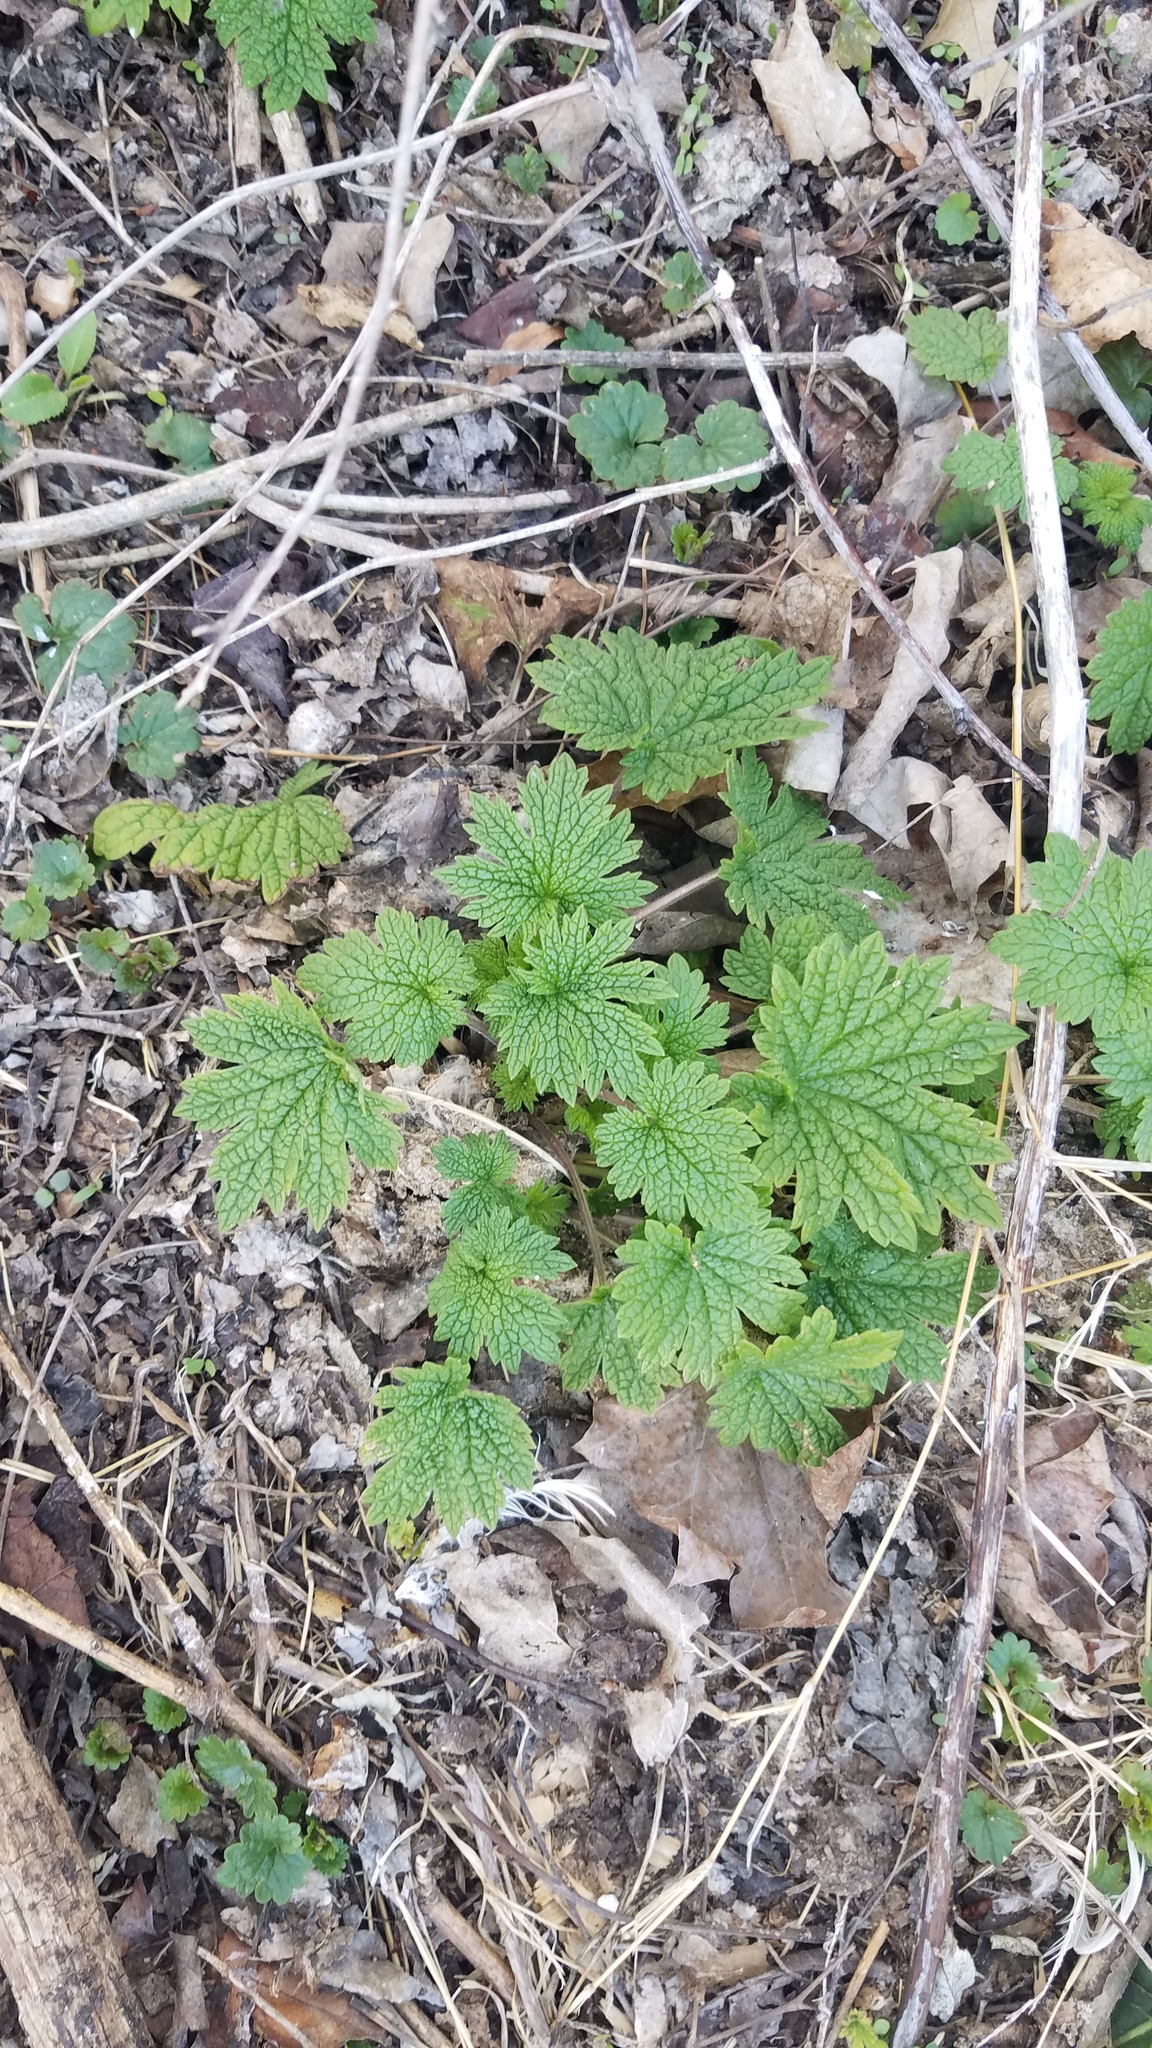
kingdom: Plantae
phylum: Tracheophyta
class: Magnoliopsida
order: Lamiales
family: Lamiaceae
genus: Leonurus
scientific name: Leonurus cardiaca
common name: Motherwort
